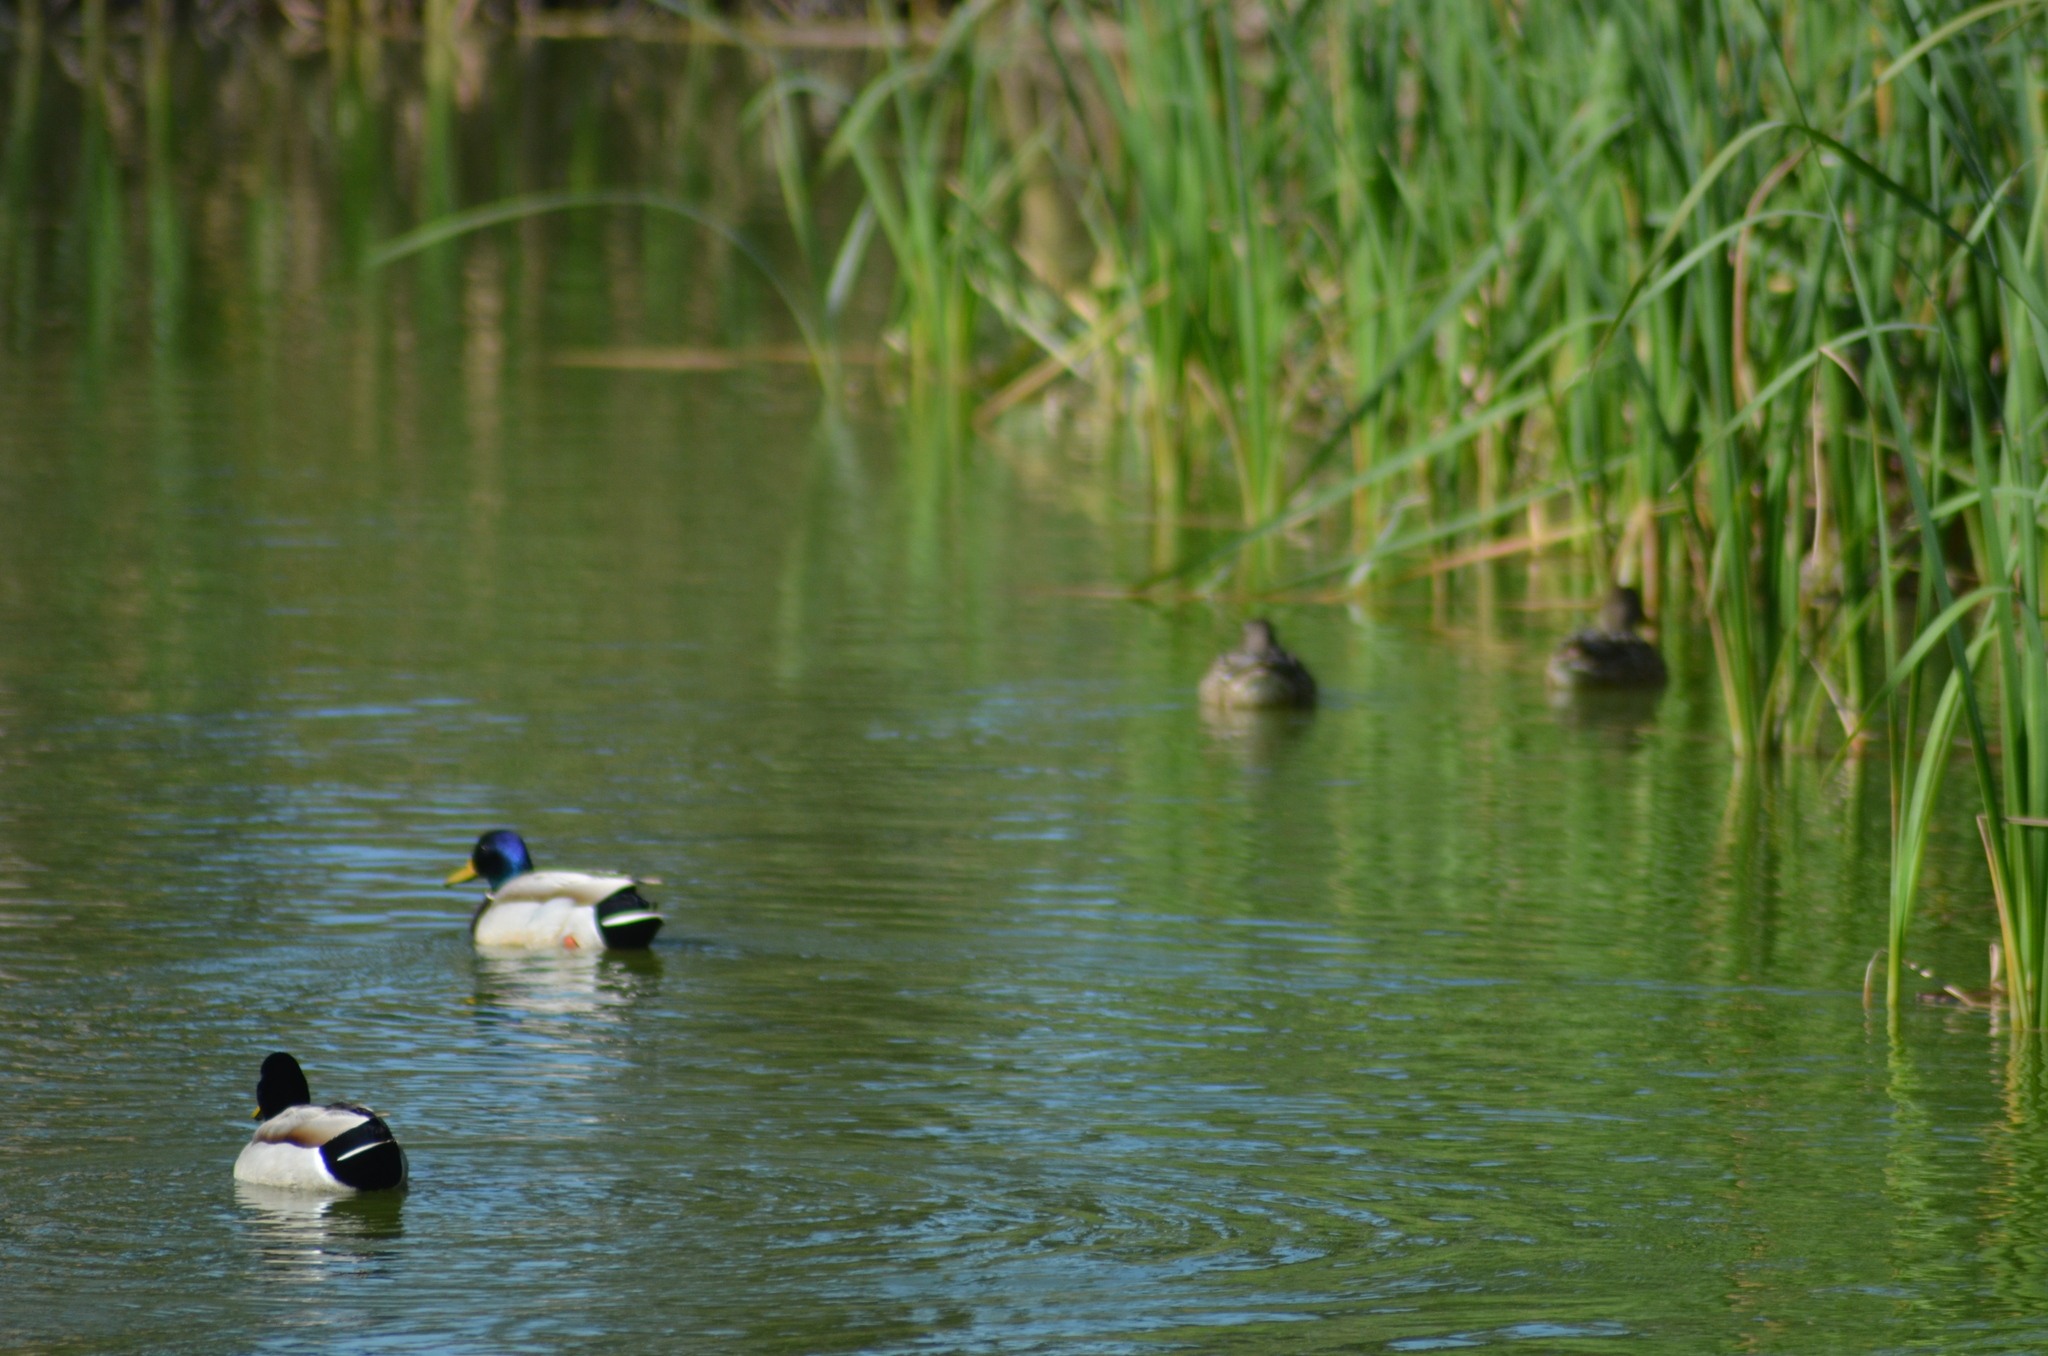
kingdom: Animalia
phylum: Chordata
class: Aves
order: Anseriformes
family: Anatidae
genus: Anas
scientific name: Anas platyrhynchos
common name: Mallard
